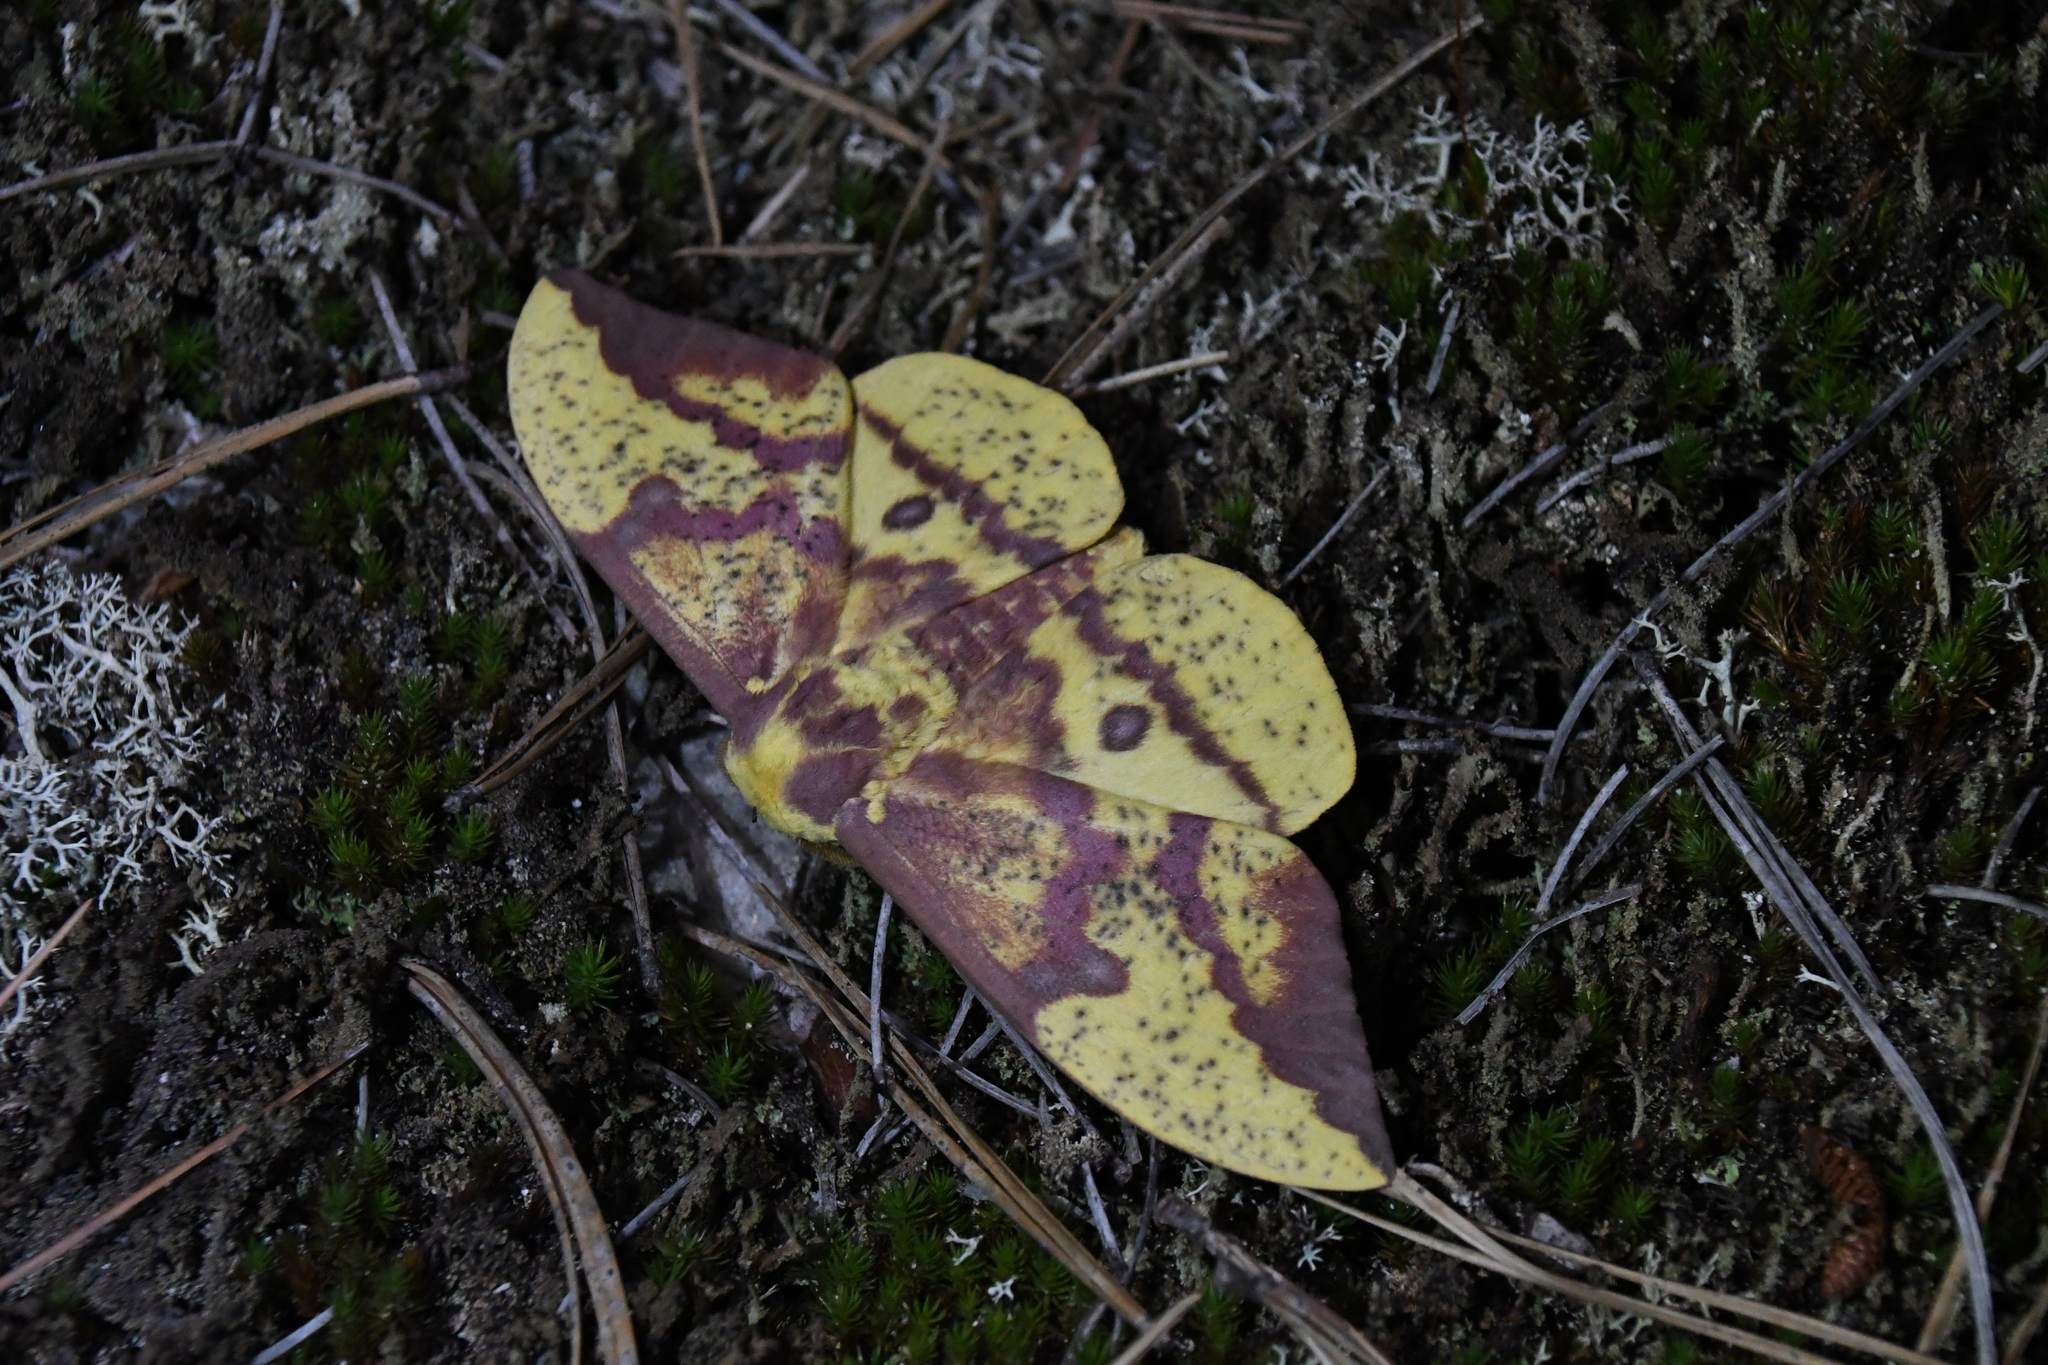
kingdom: Animalia
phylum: Arthropoda
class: Insecta
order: Lepidoptera
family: Saturniidae
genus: Eacles
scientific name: Eacles
